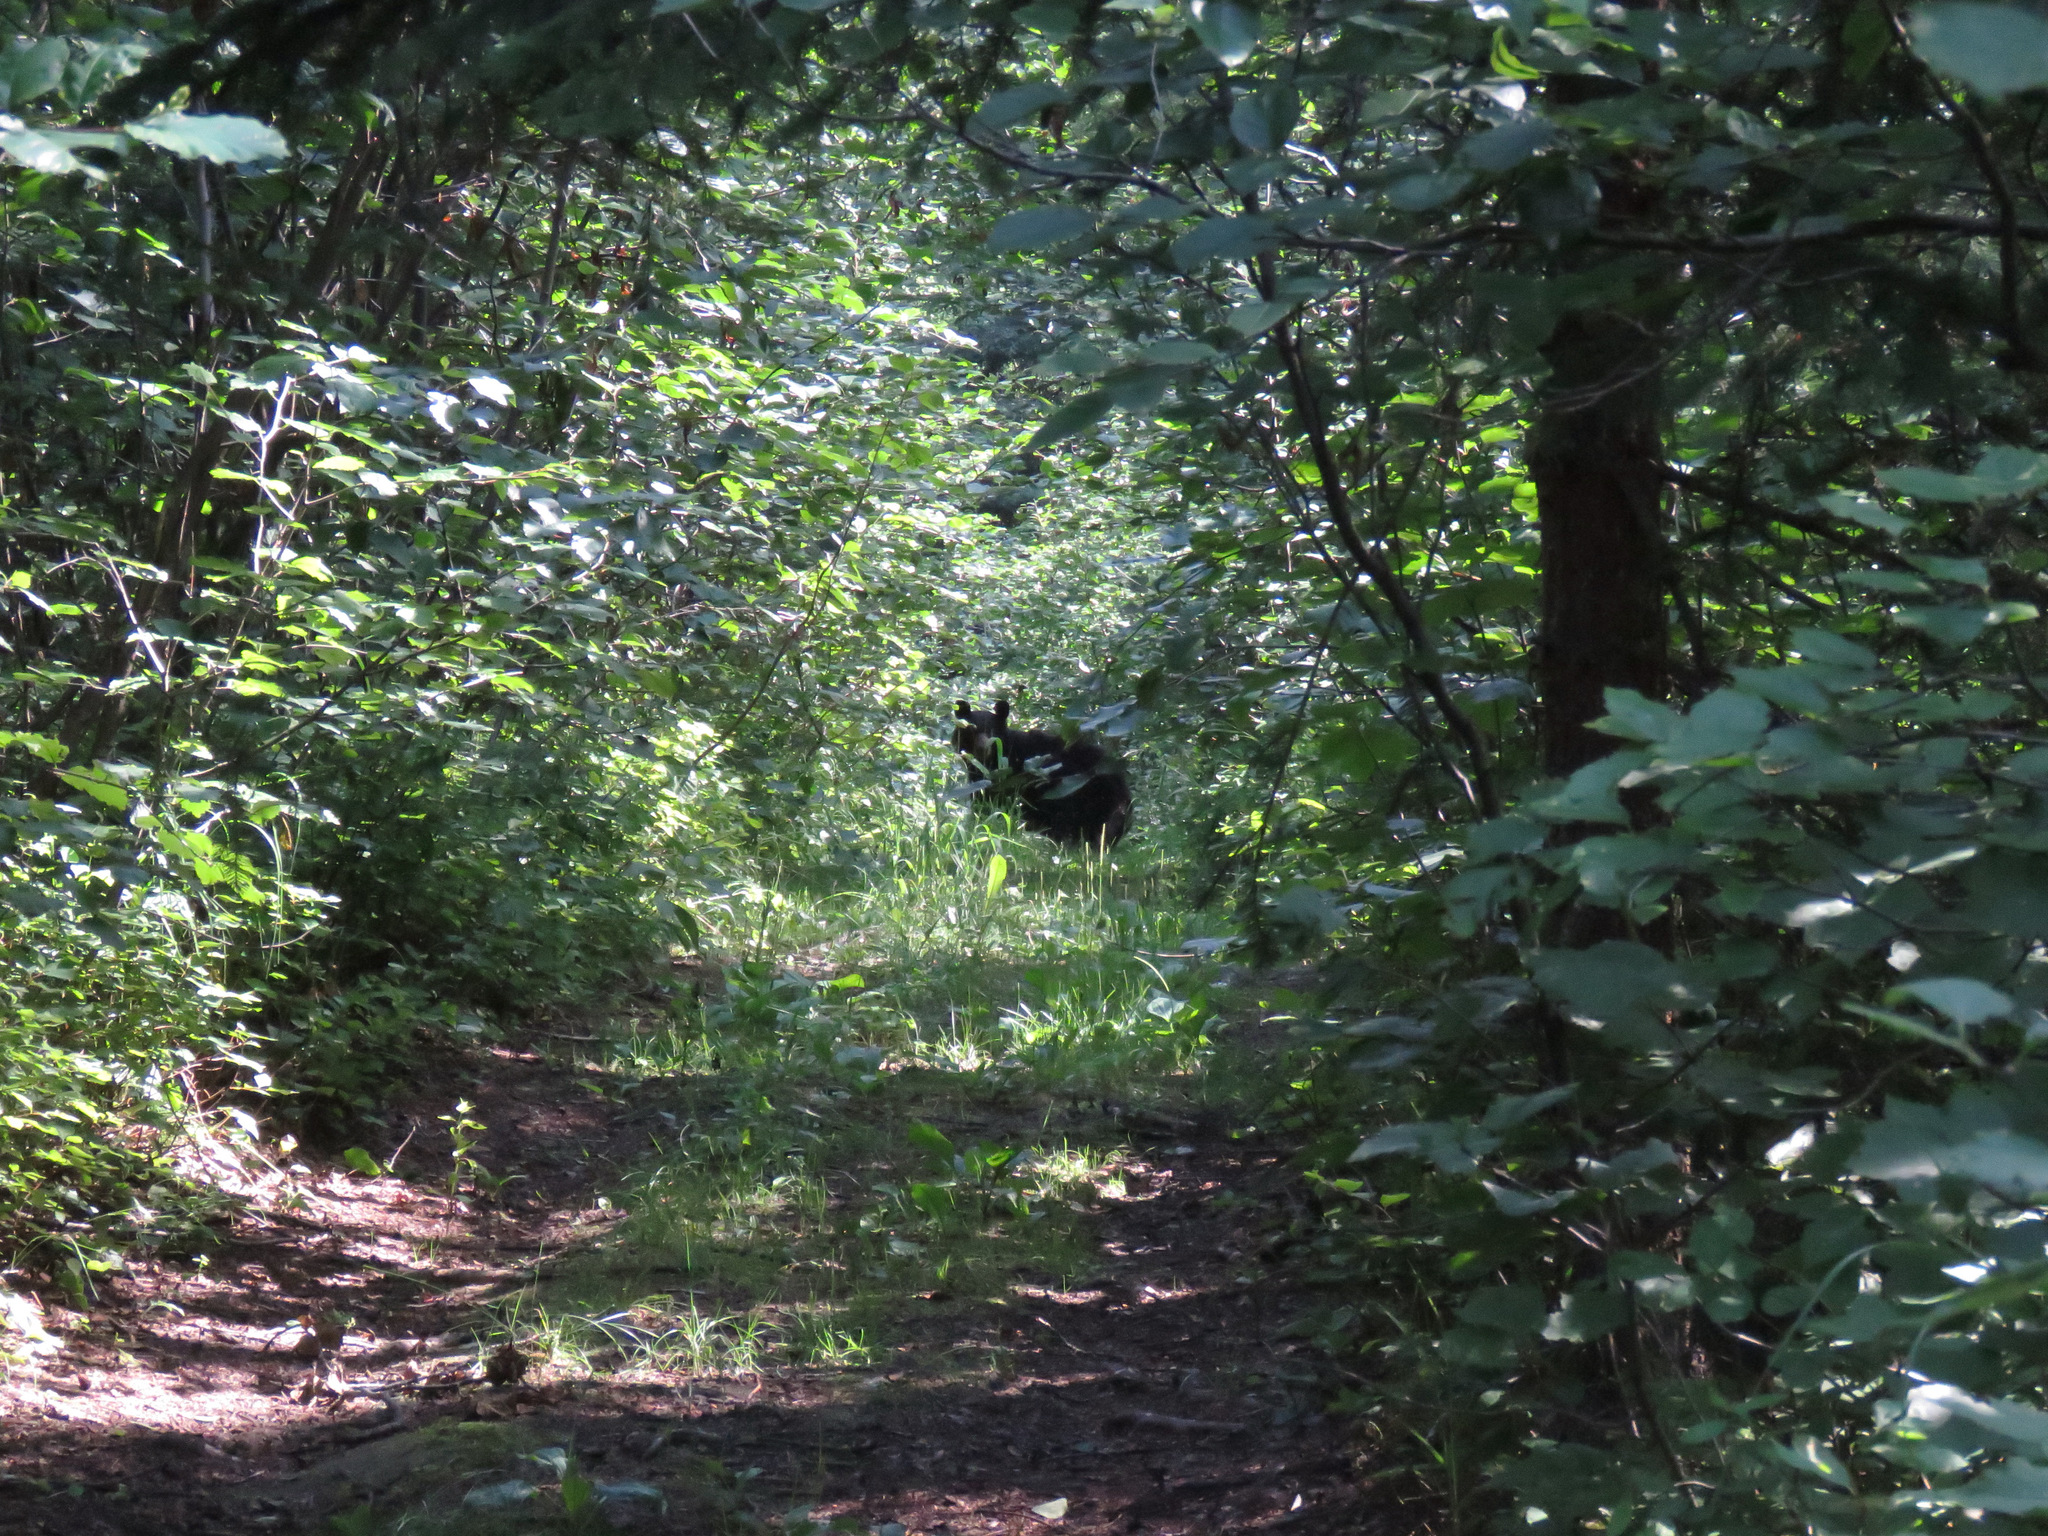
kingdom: Animalia
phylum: Chordata
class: Mammalia
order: Carnivora
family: Ursidae
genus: Ursus
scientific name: Ursus americanus
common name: American black bear
